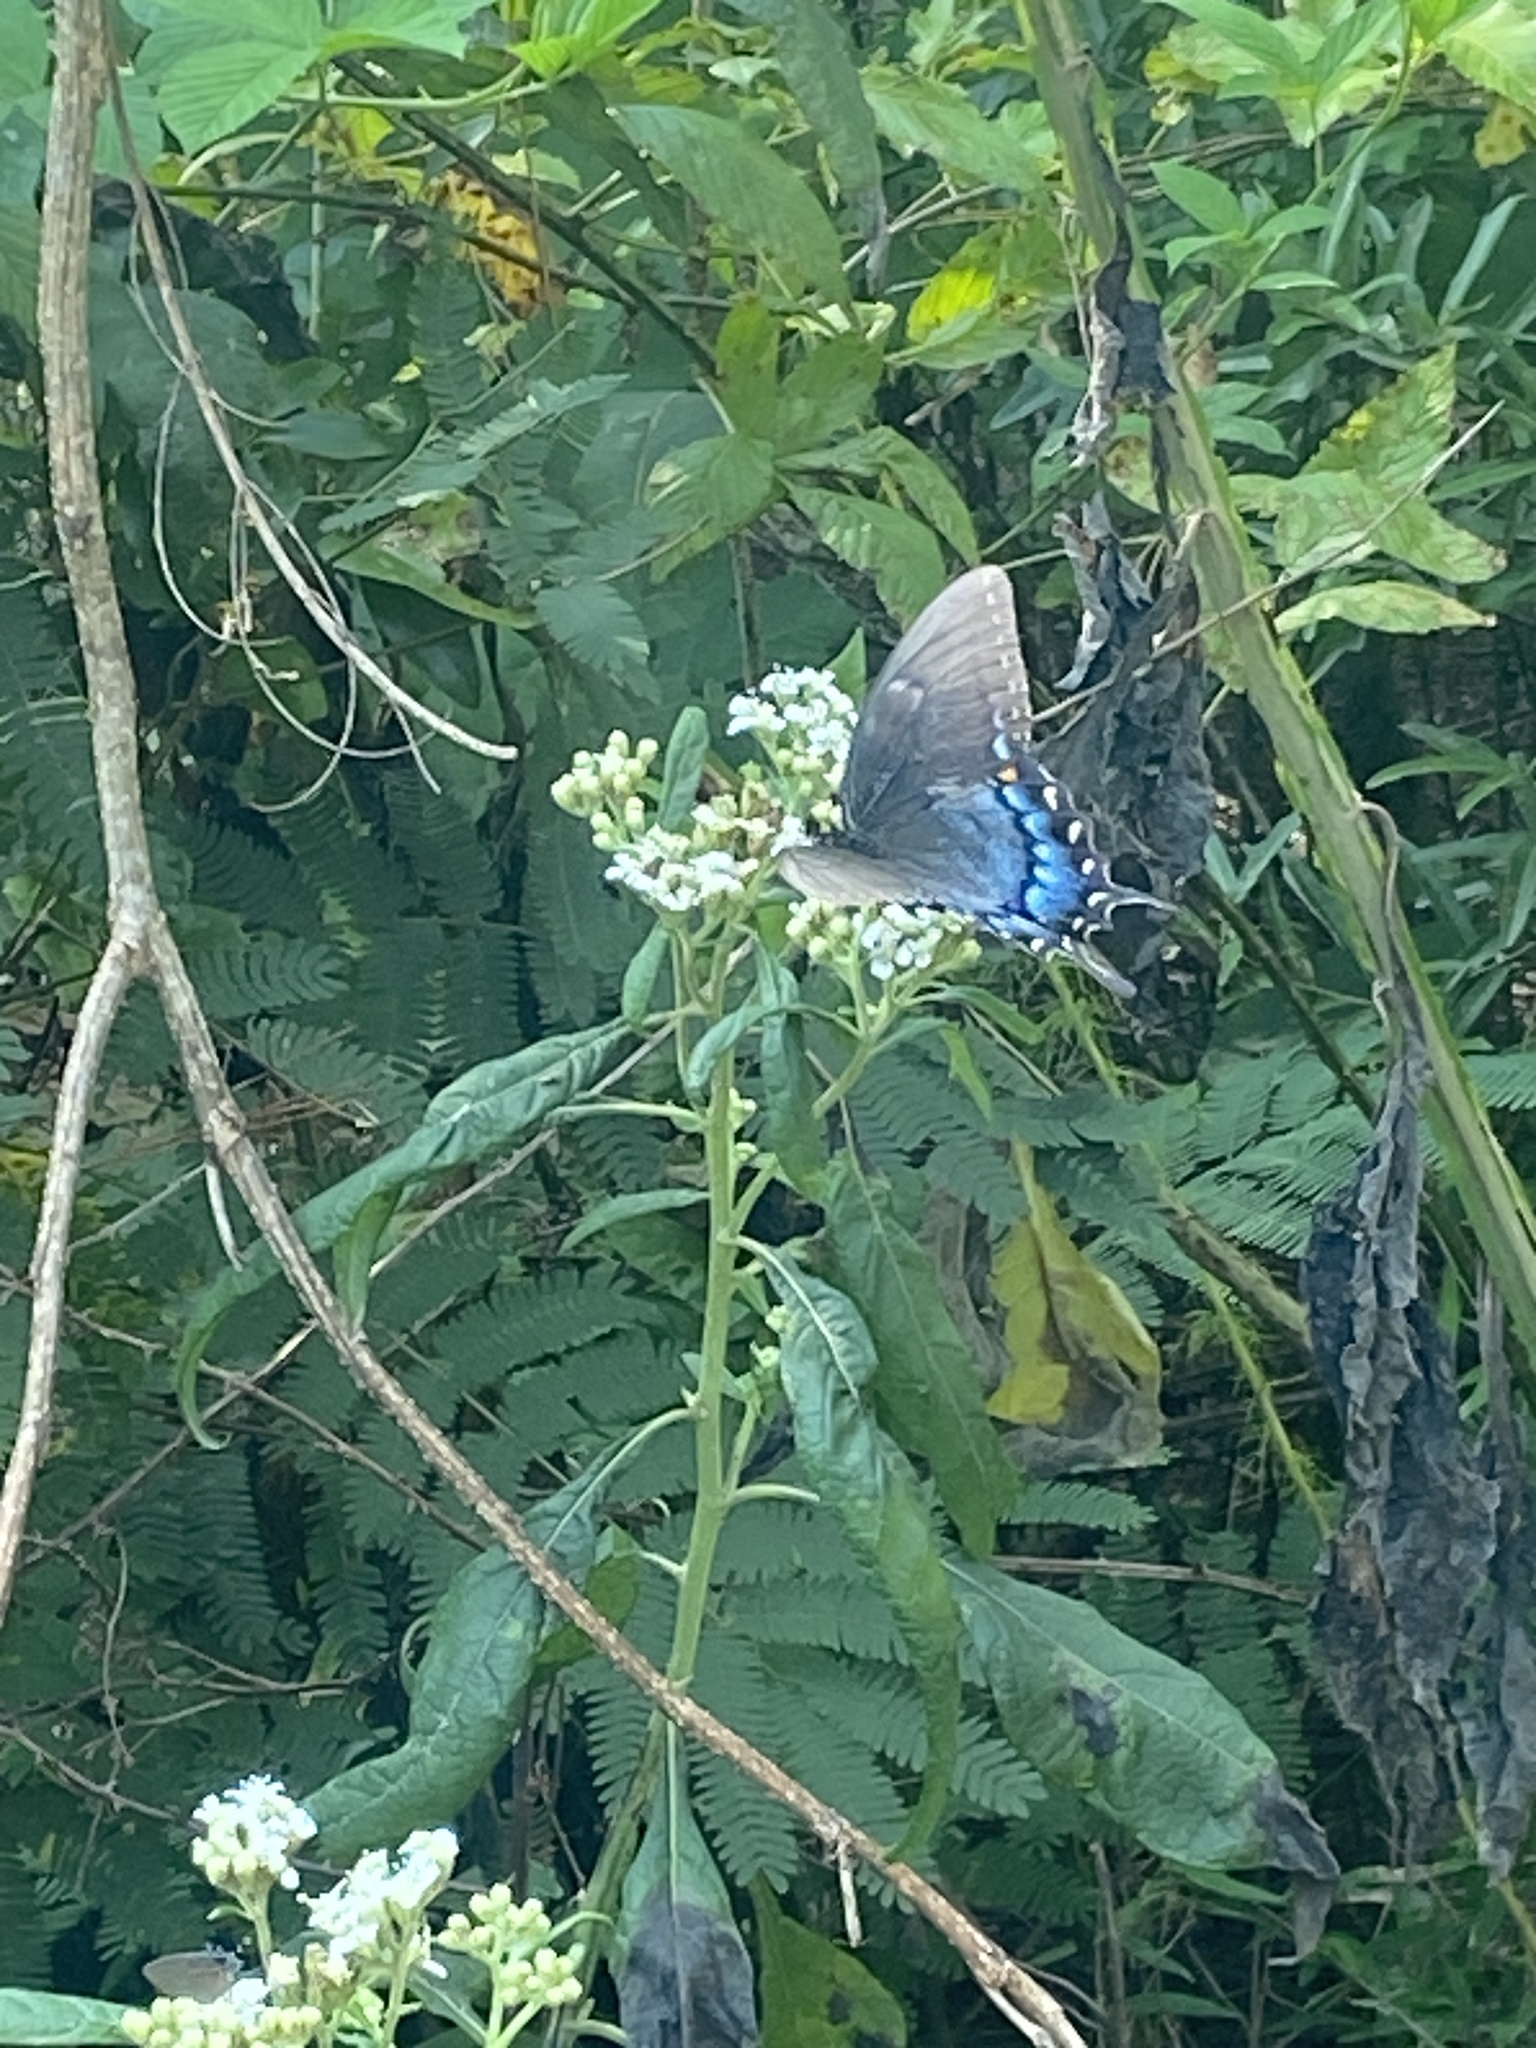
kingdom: Animalia
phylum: Arthropoda
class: Insecta
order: Lepidoptera
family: Papilionidae
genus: Papilio
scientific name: Papilio glaucus
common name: Tiger swallowtail
